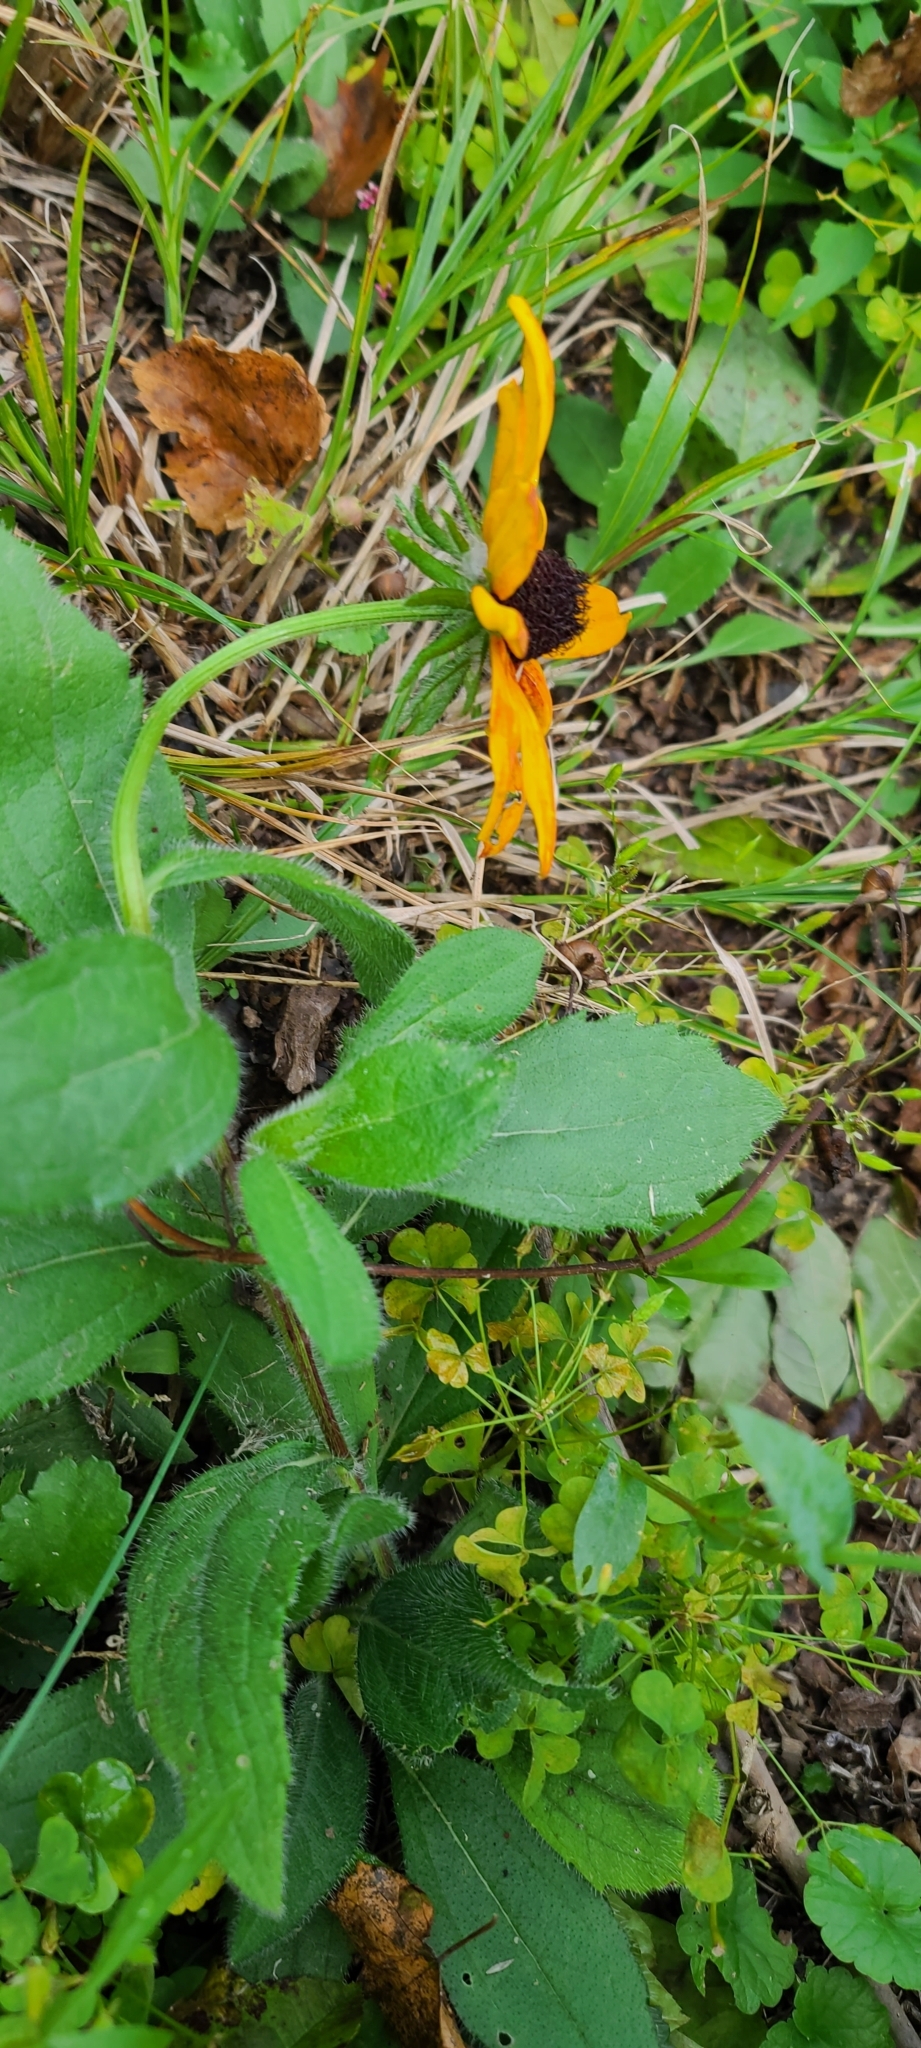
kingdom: Plantae
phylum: Tracheophyta
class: Magnoliopsida
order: Asterales
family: Asteraceae
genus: Rudbeckia
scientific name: Rudbeckia hirta
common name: Black-eyed-susan
